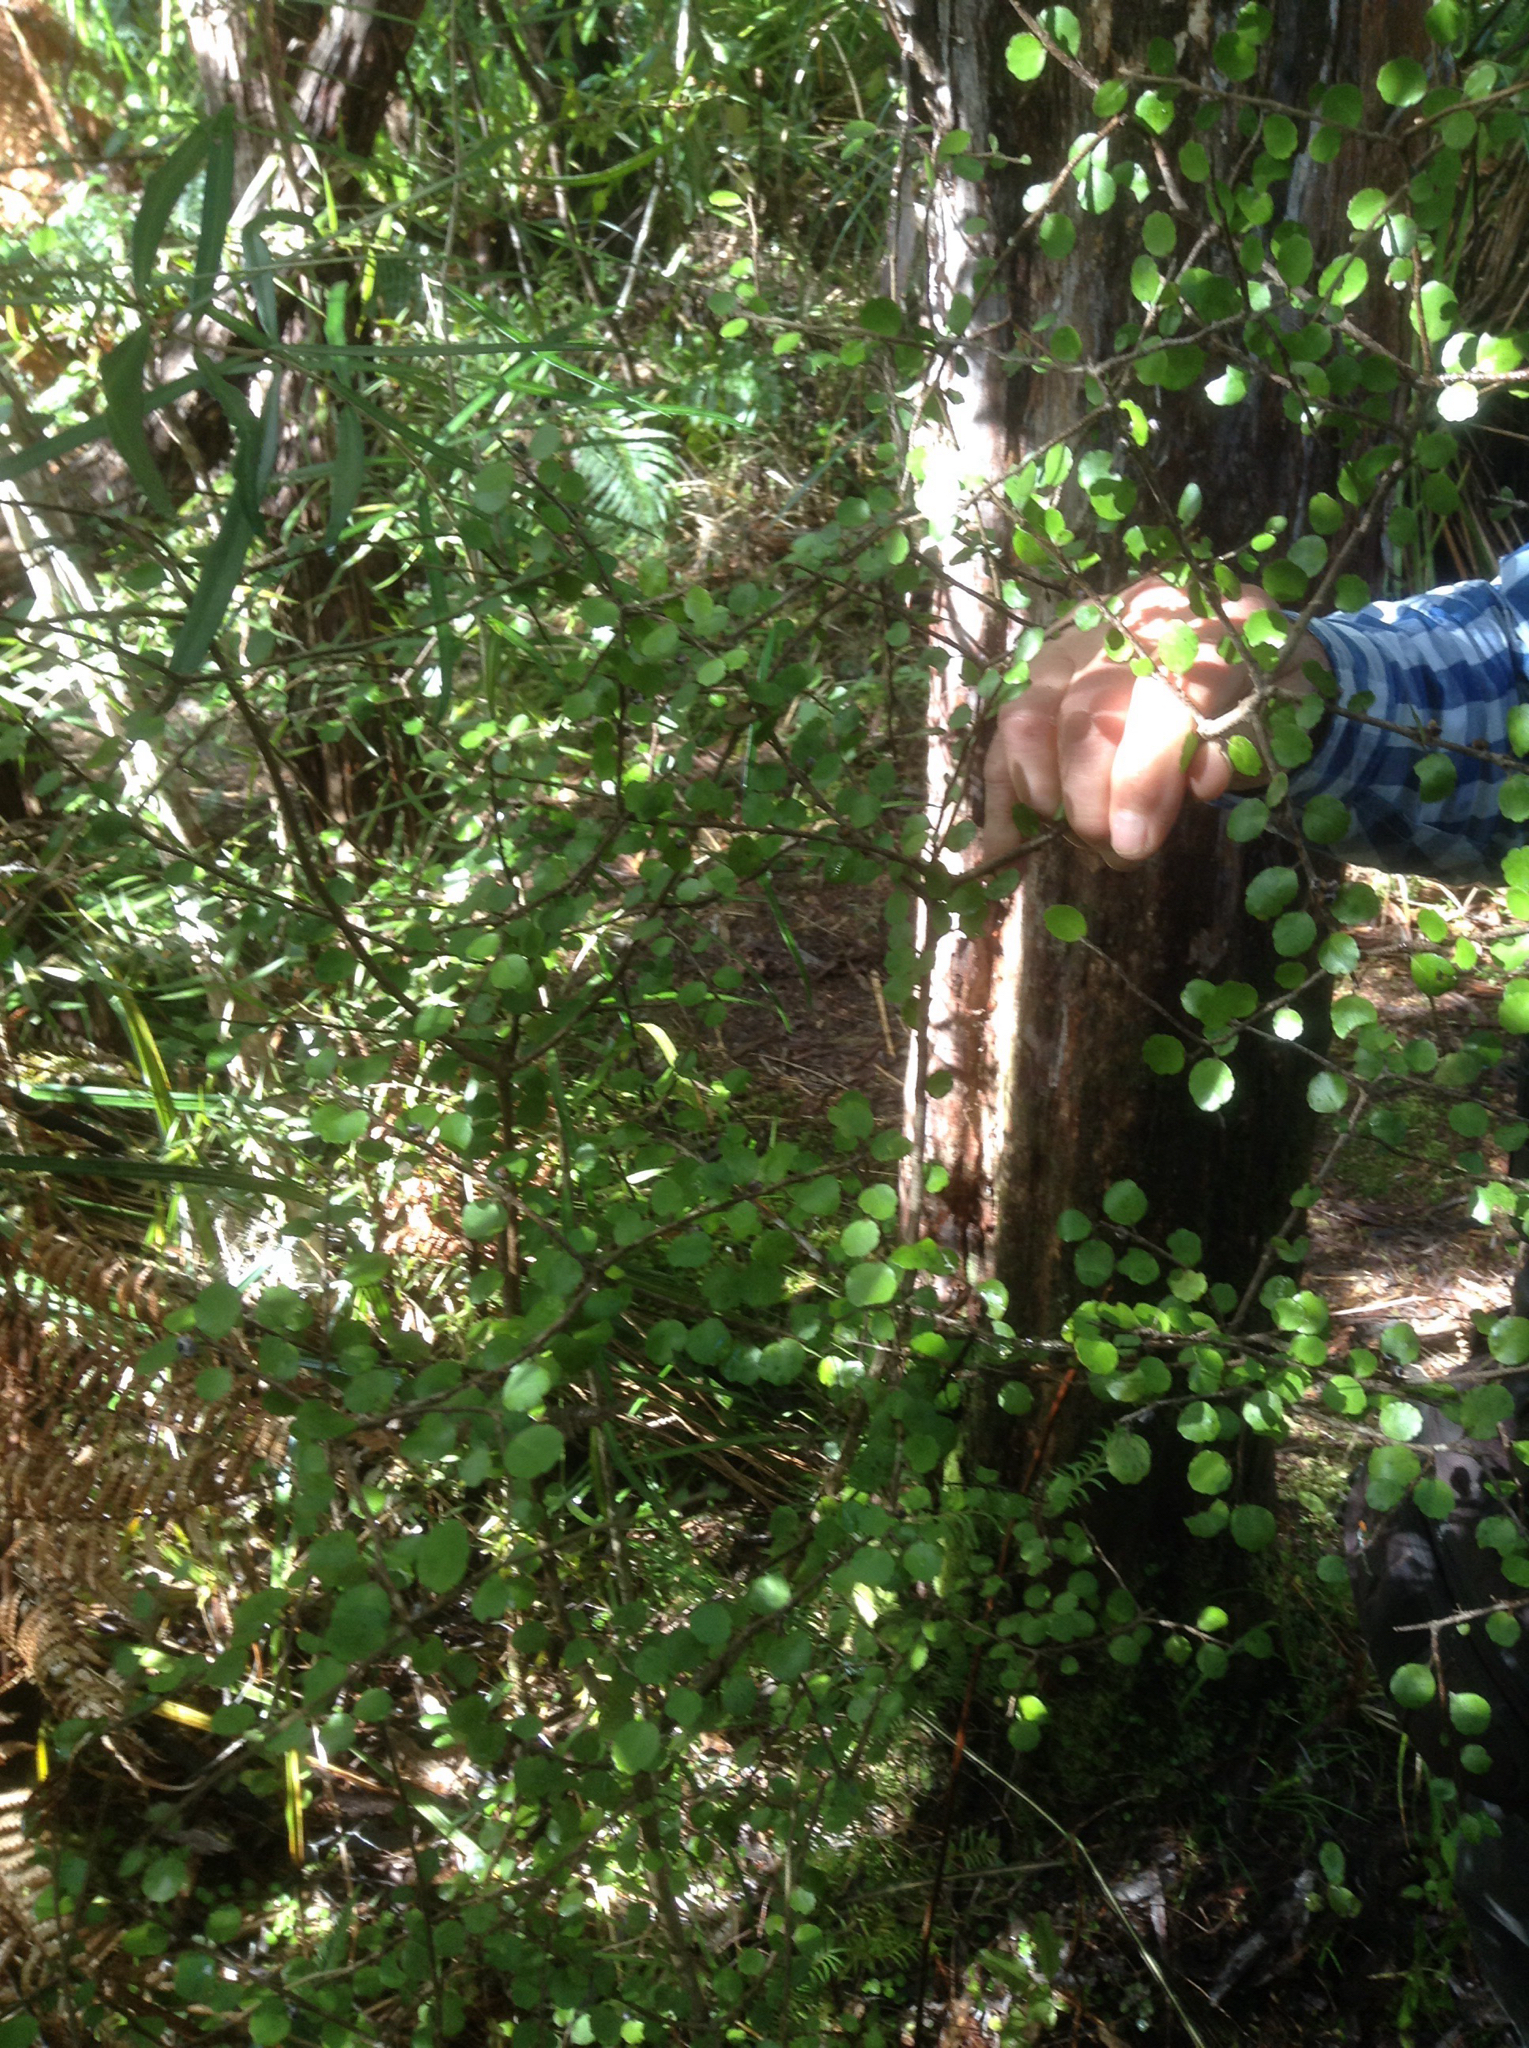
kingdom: Plantae
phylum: Tracheophyta
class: Magnoliopsida
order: Apiales
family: Araliaceae
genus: Raukaua
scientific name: Raukaua anomalus
